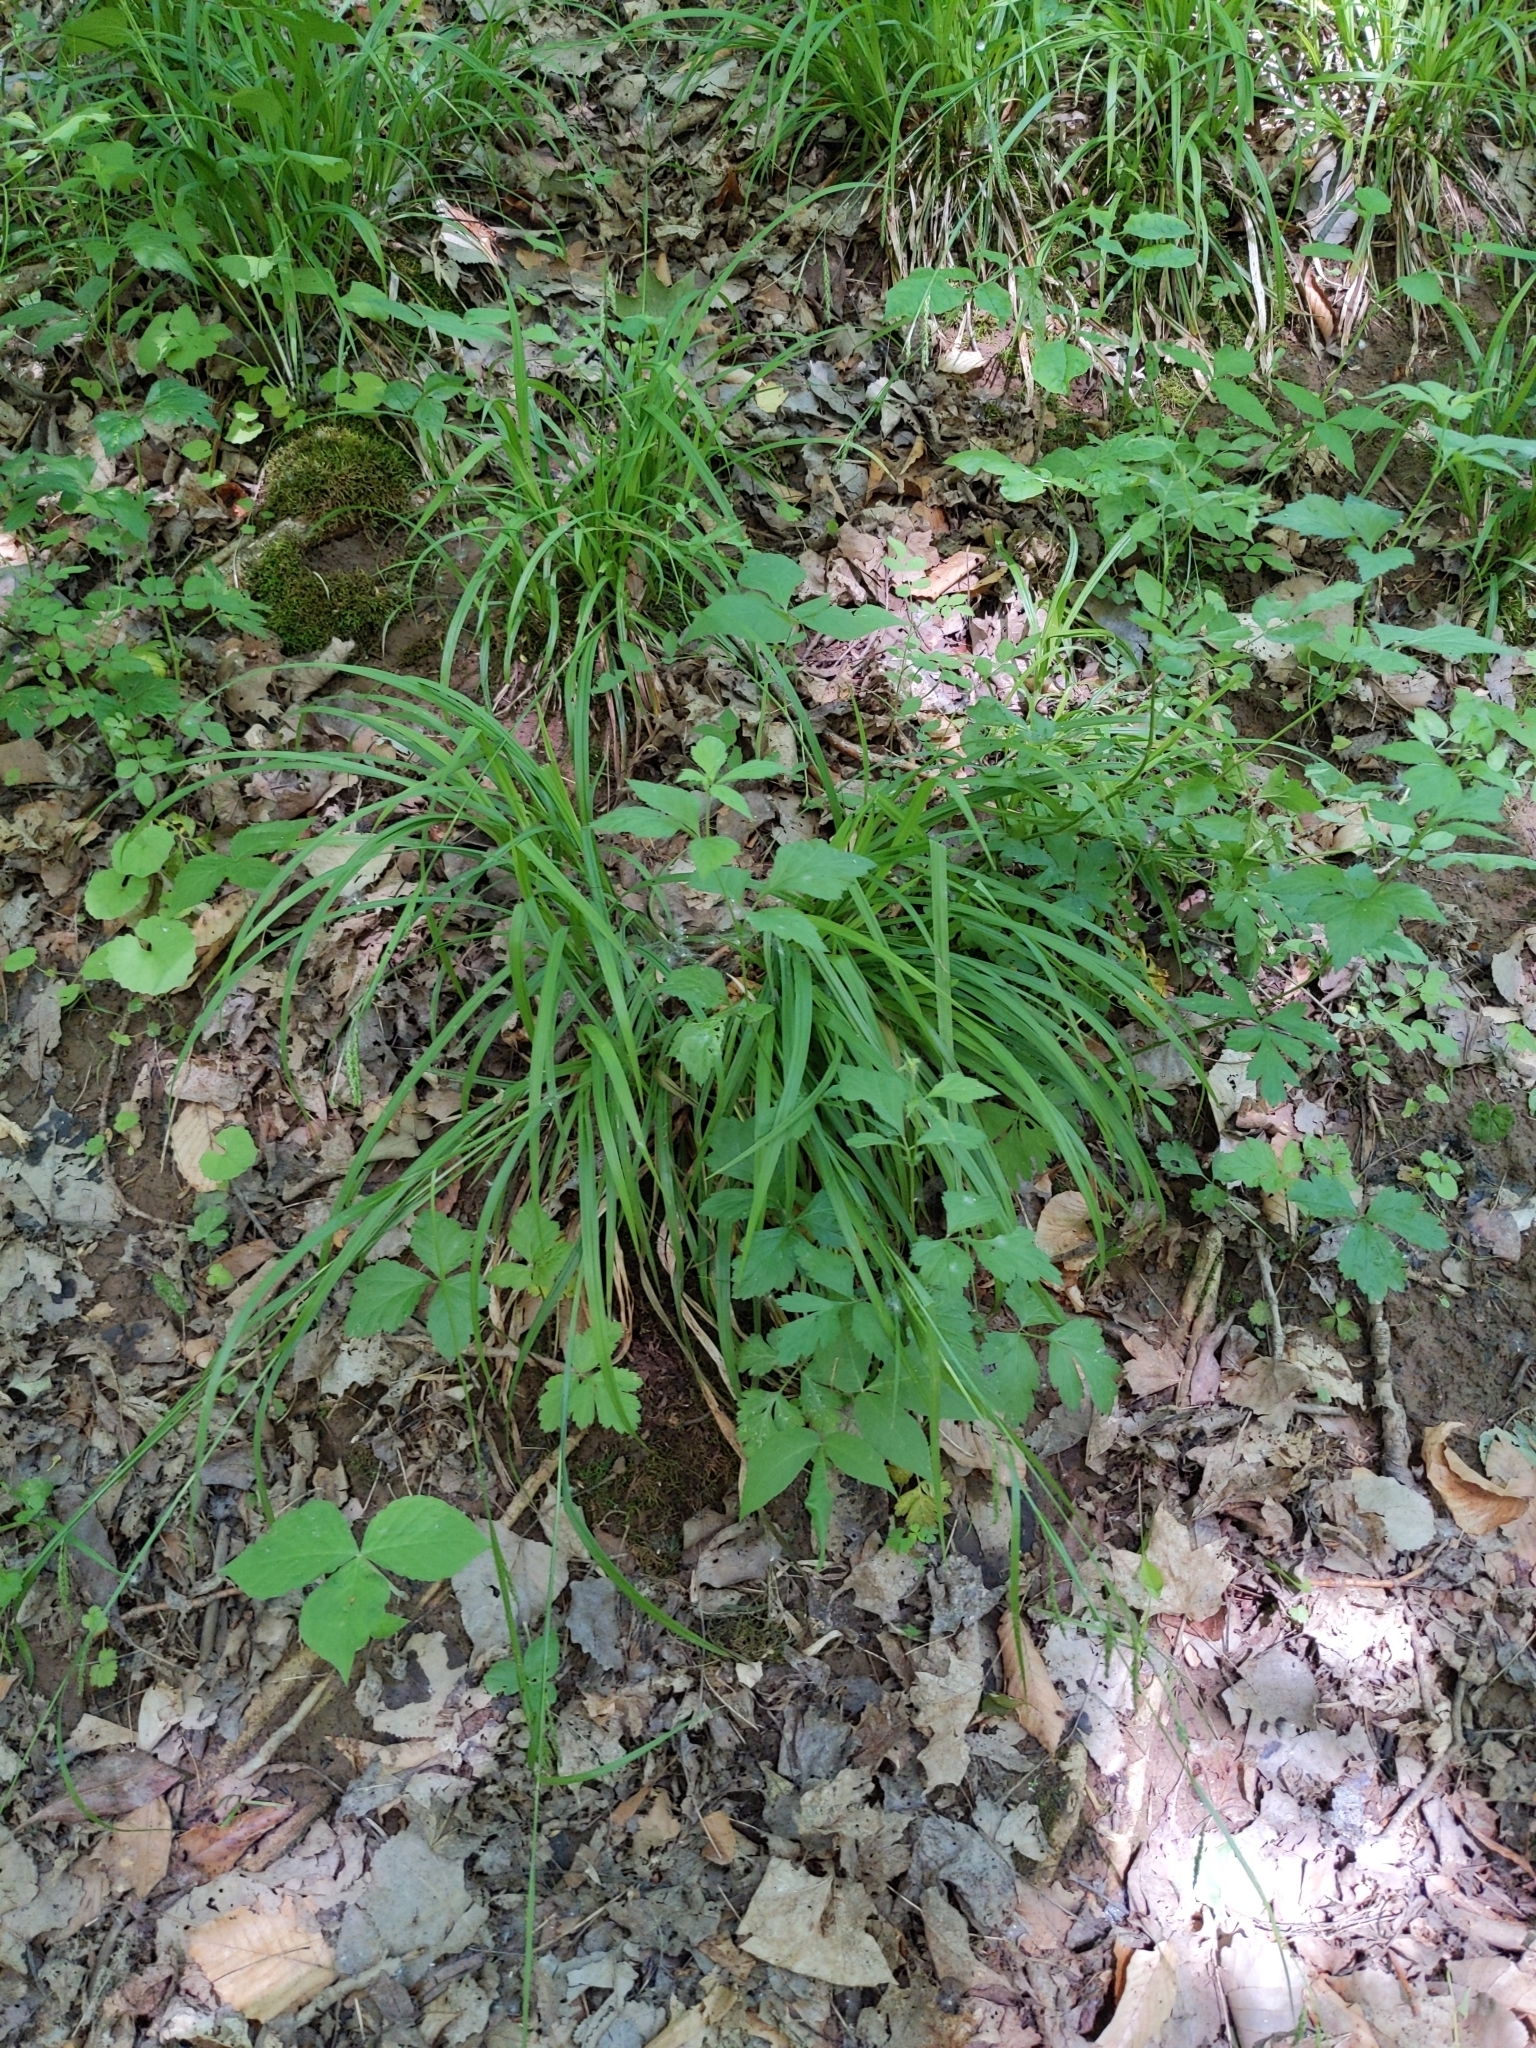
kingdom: Plantae
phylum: Tracheophyta
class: Liliopsida
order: Poales
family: Cyperaceae
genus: Carex
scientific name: Carex gracillima
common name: Graceful sedge
